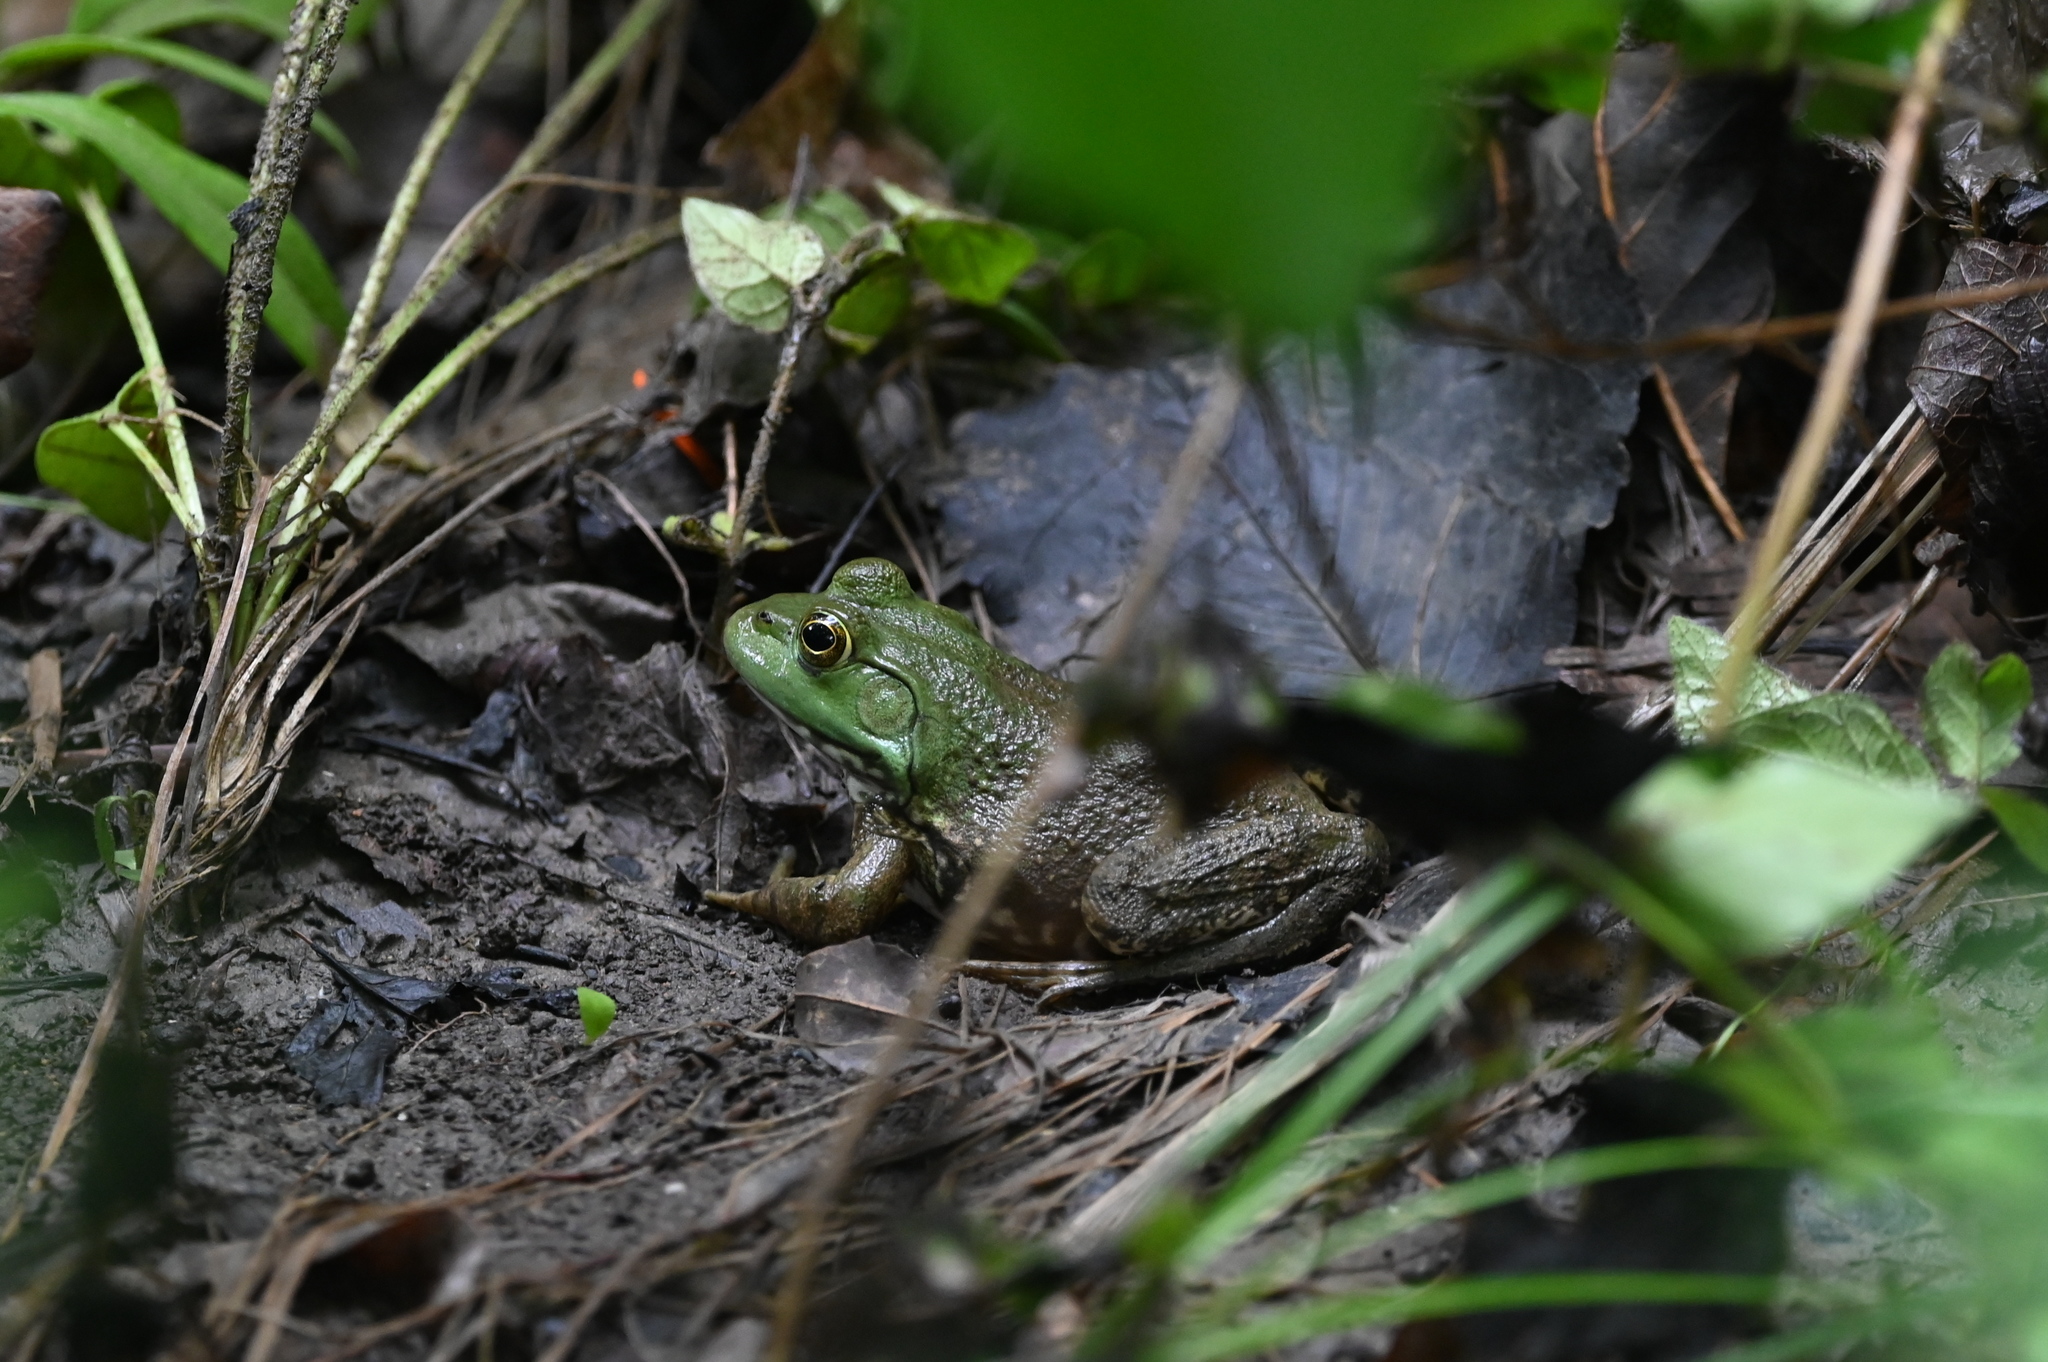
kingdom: Animalia
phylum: Chordata
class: Amphibia
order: Anura
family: Ranidae
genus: Lithobates
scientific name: Lithobates catesbeianus
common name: American bullfrog
